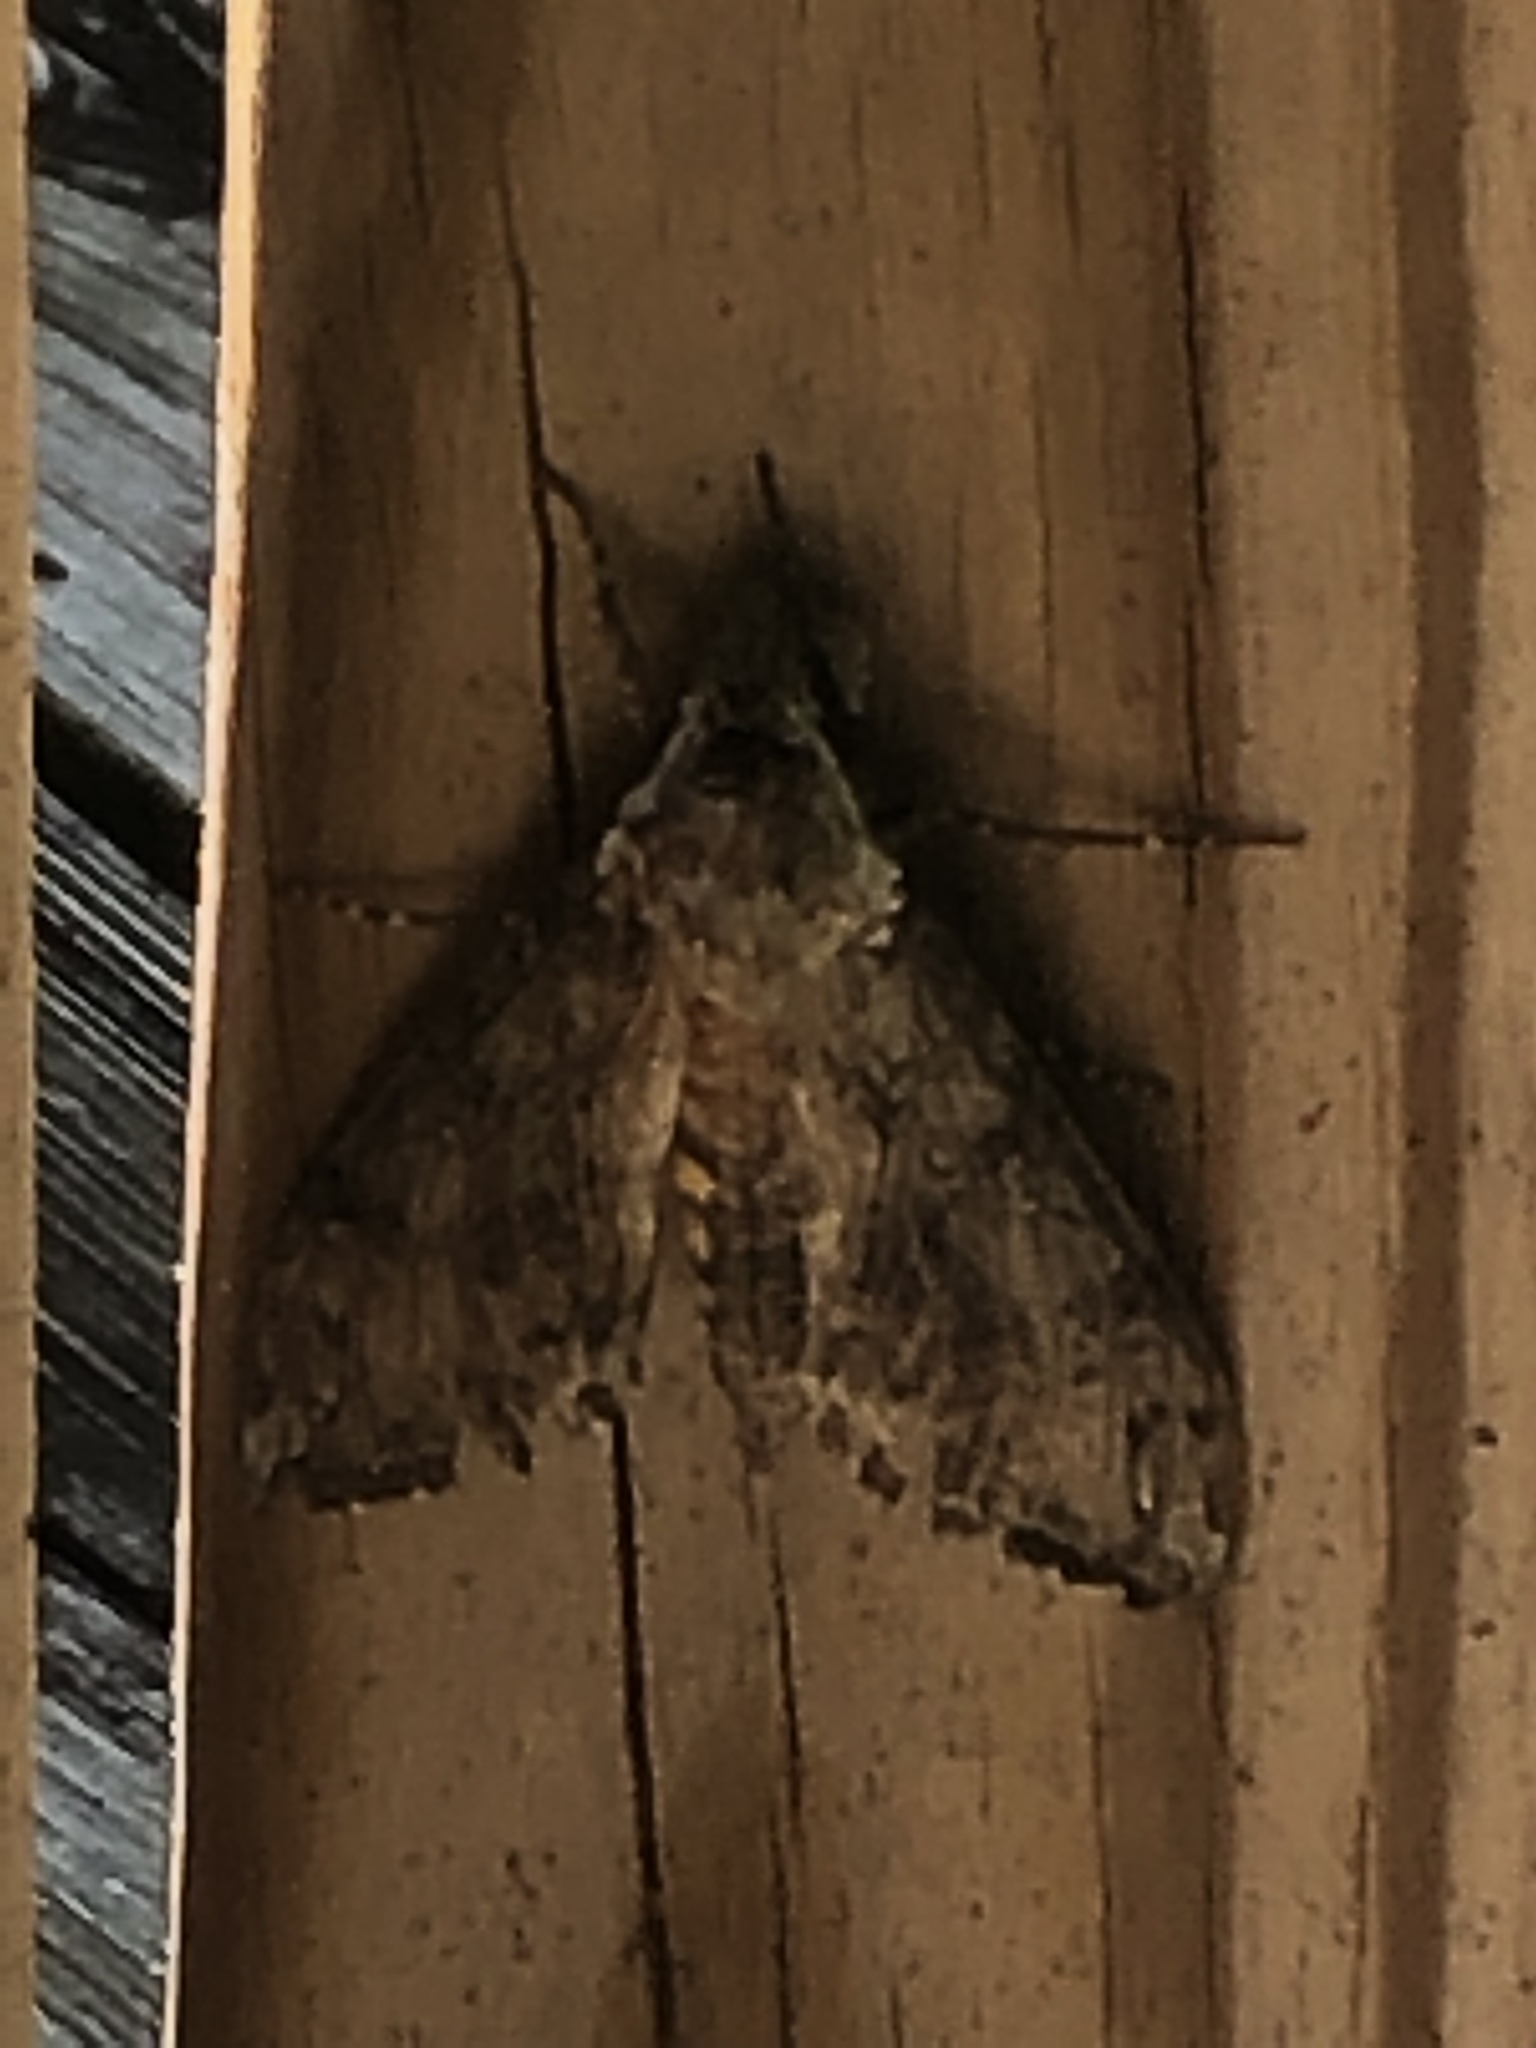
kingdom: Animalia
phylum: Arthropoda
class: Insecta
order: Lepidoptera
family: Sphingidae
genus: Manduca
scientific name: Manduca sexta
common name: Carolina sphinx
